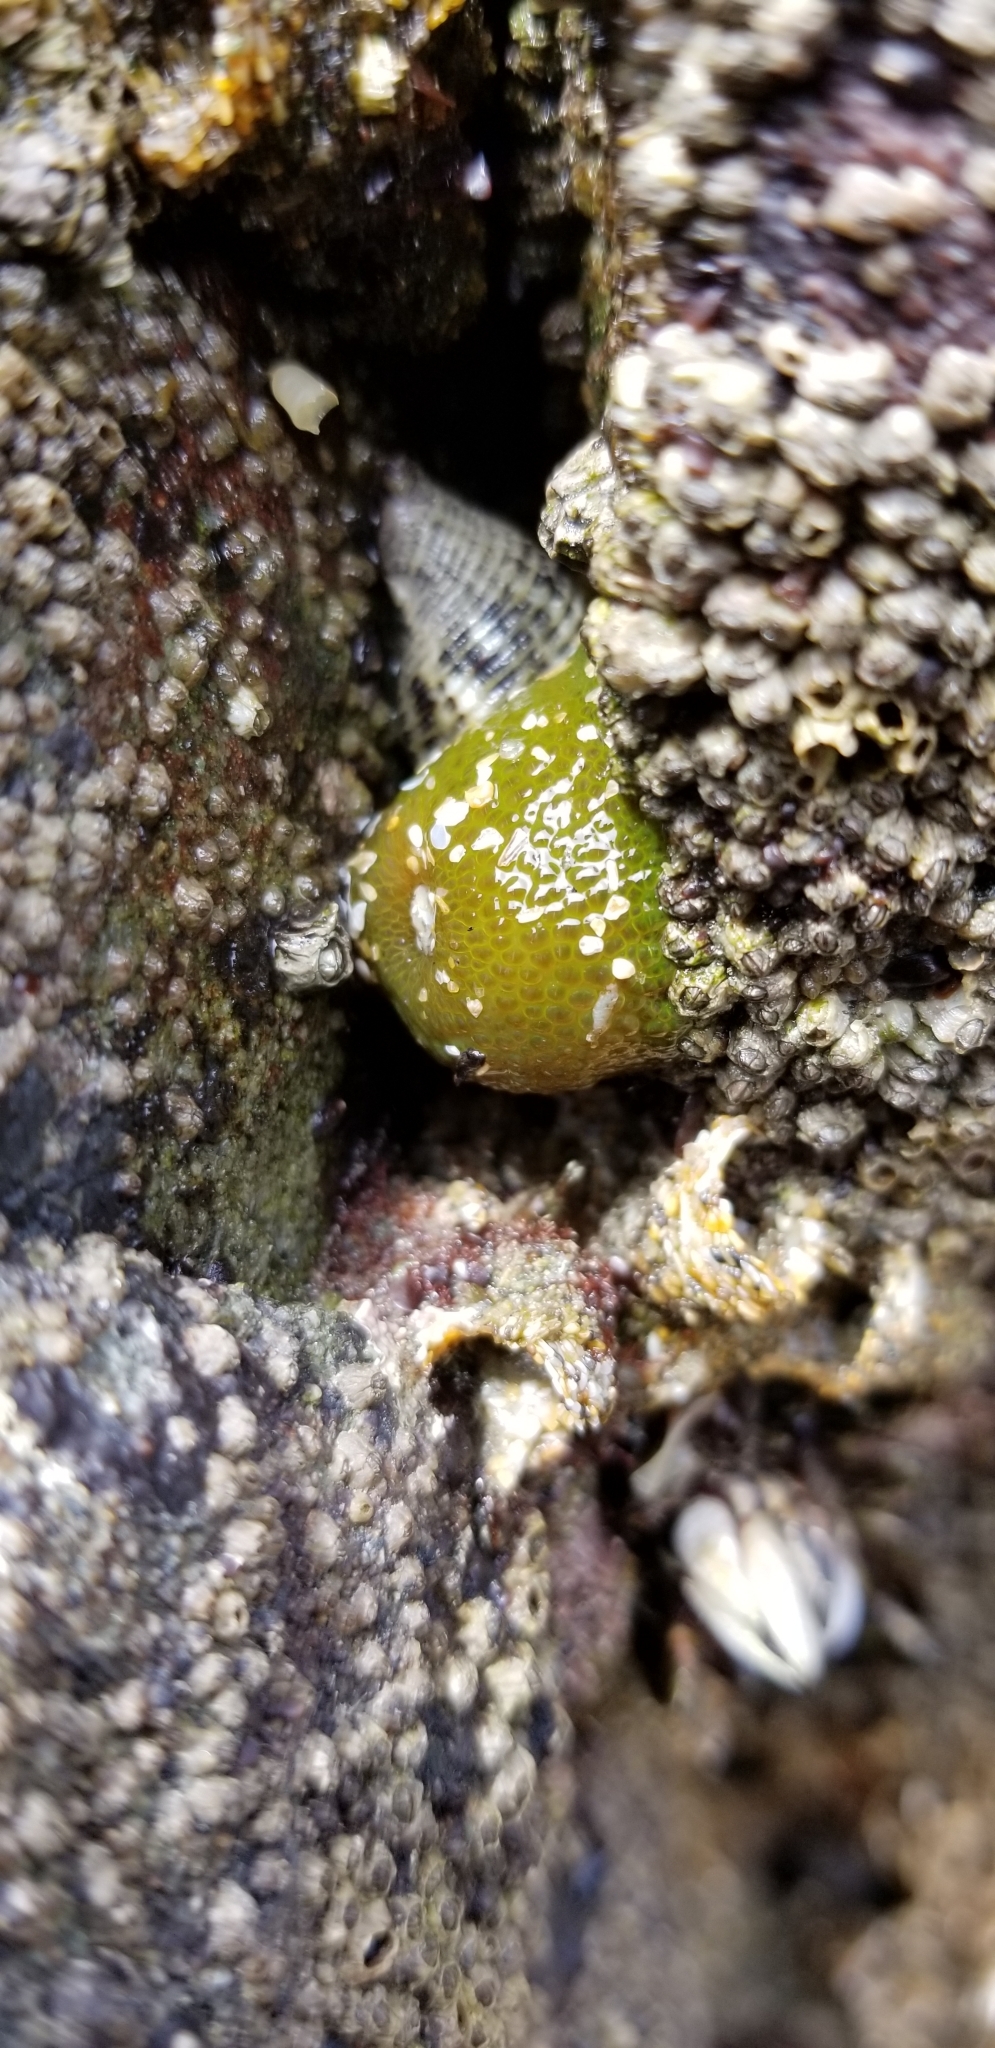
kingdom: Animalia
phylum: Cnidaria
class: Anthozoa
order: Actiniaria
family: Actiniidae
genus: Anthopleura
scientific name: Anthopleura elegantissima
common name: Clonal anemone
